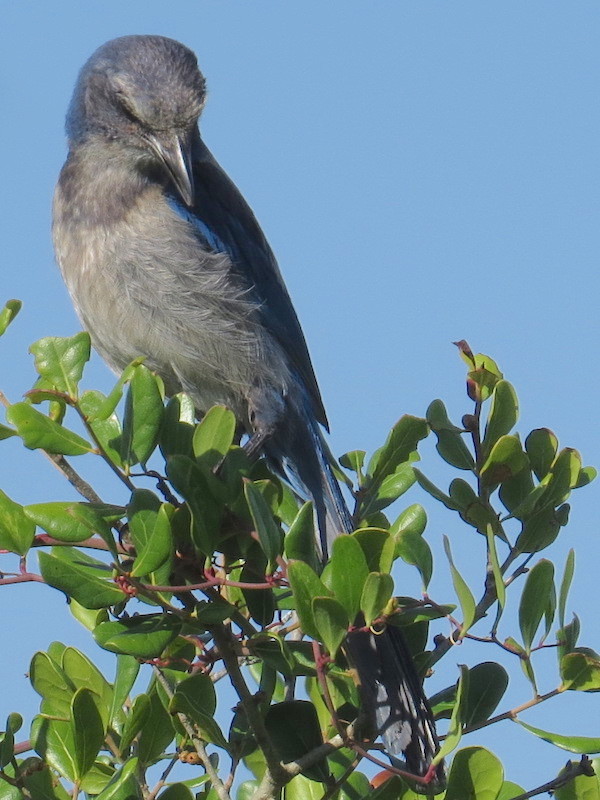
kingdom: Animalia
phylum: Chordata
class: Aves
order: Passeriformes
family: Corvidae
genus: Aphelocoma
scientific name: Aphelocoma coerulescens
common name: Florida scrub jay
